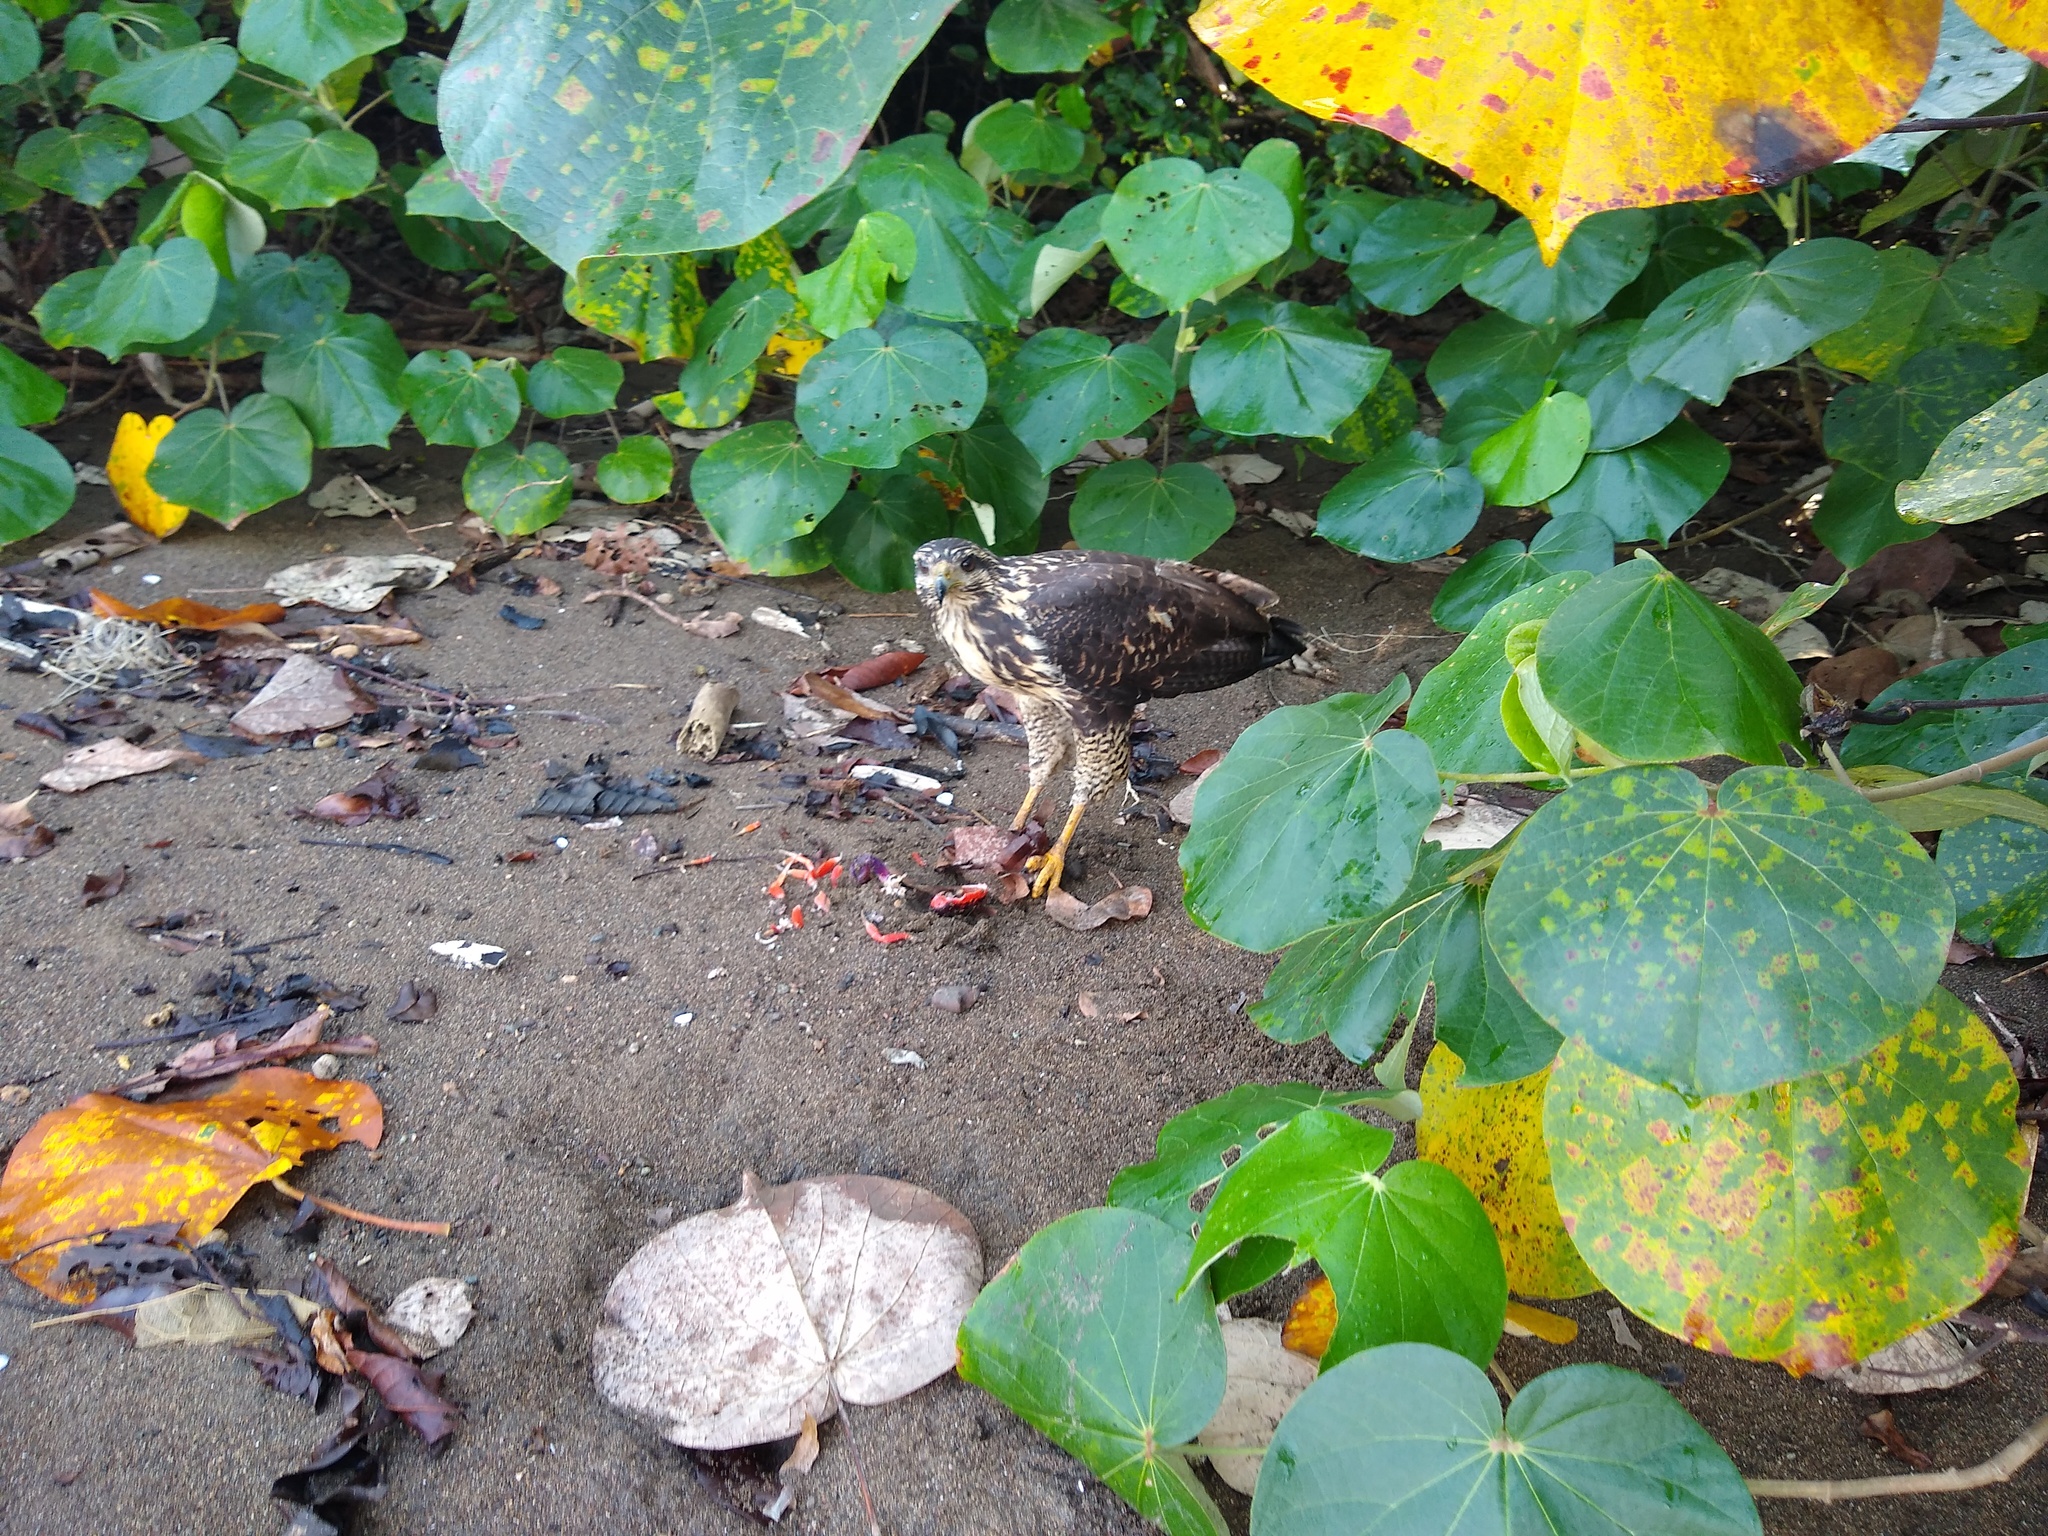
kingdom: Animalia
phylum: Chordata
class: Aves
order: Accipitriformes
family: Accipitridae
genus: Buteogallus
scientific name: Buteogallus anthracinus
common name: Common black hawk
